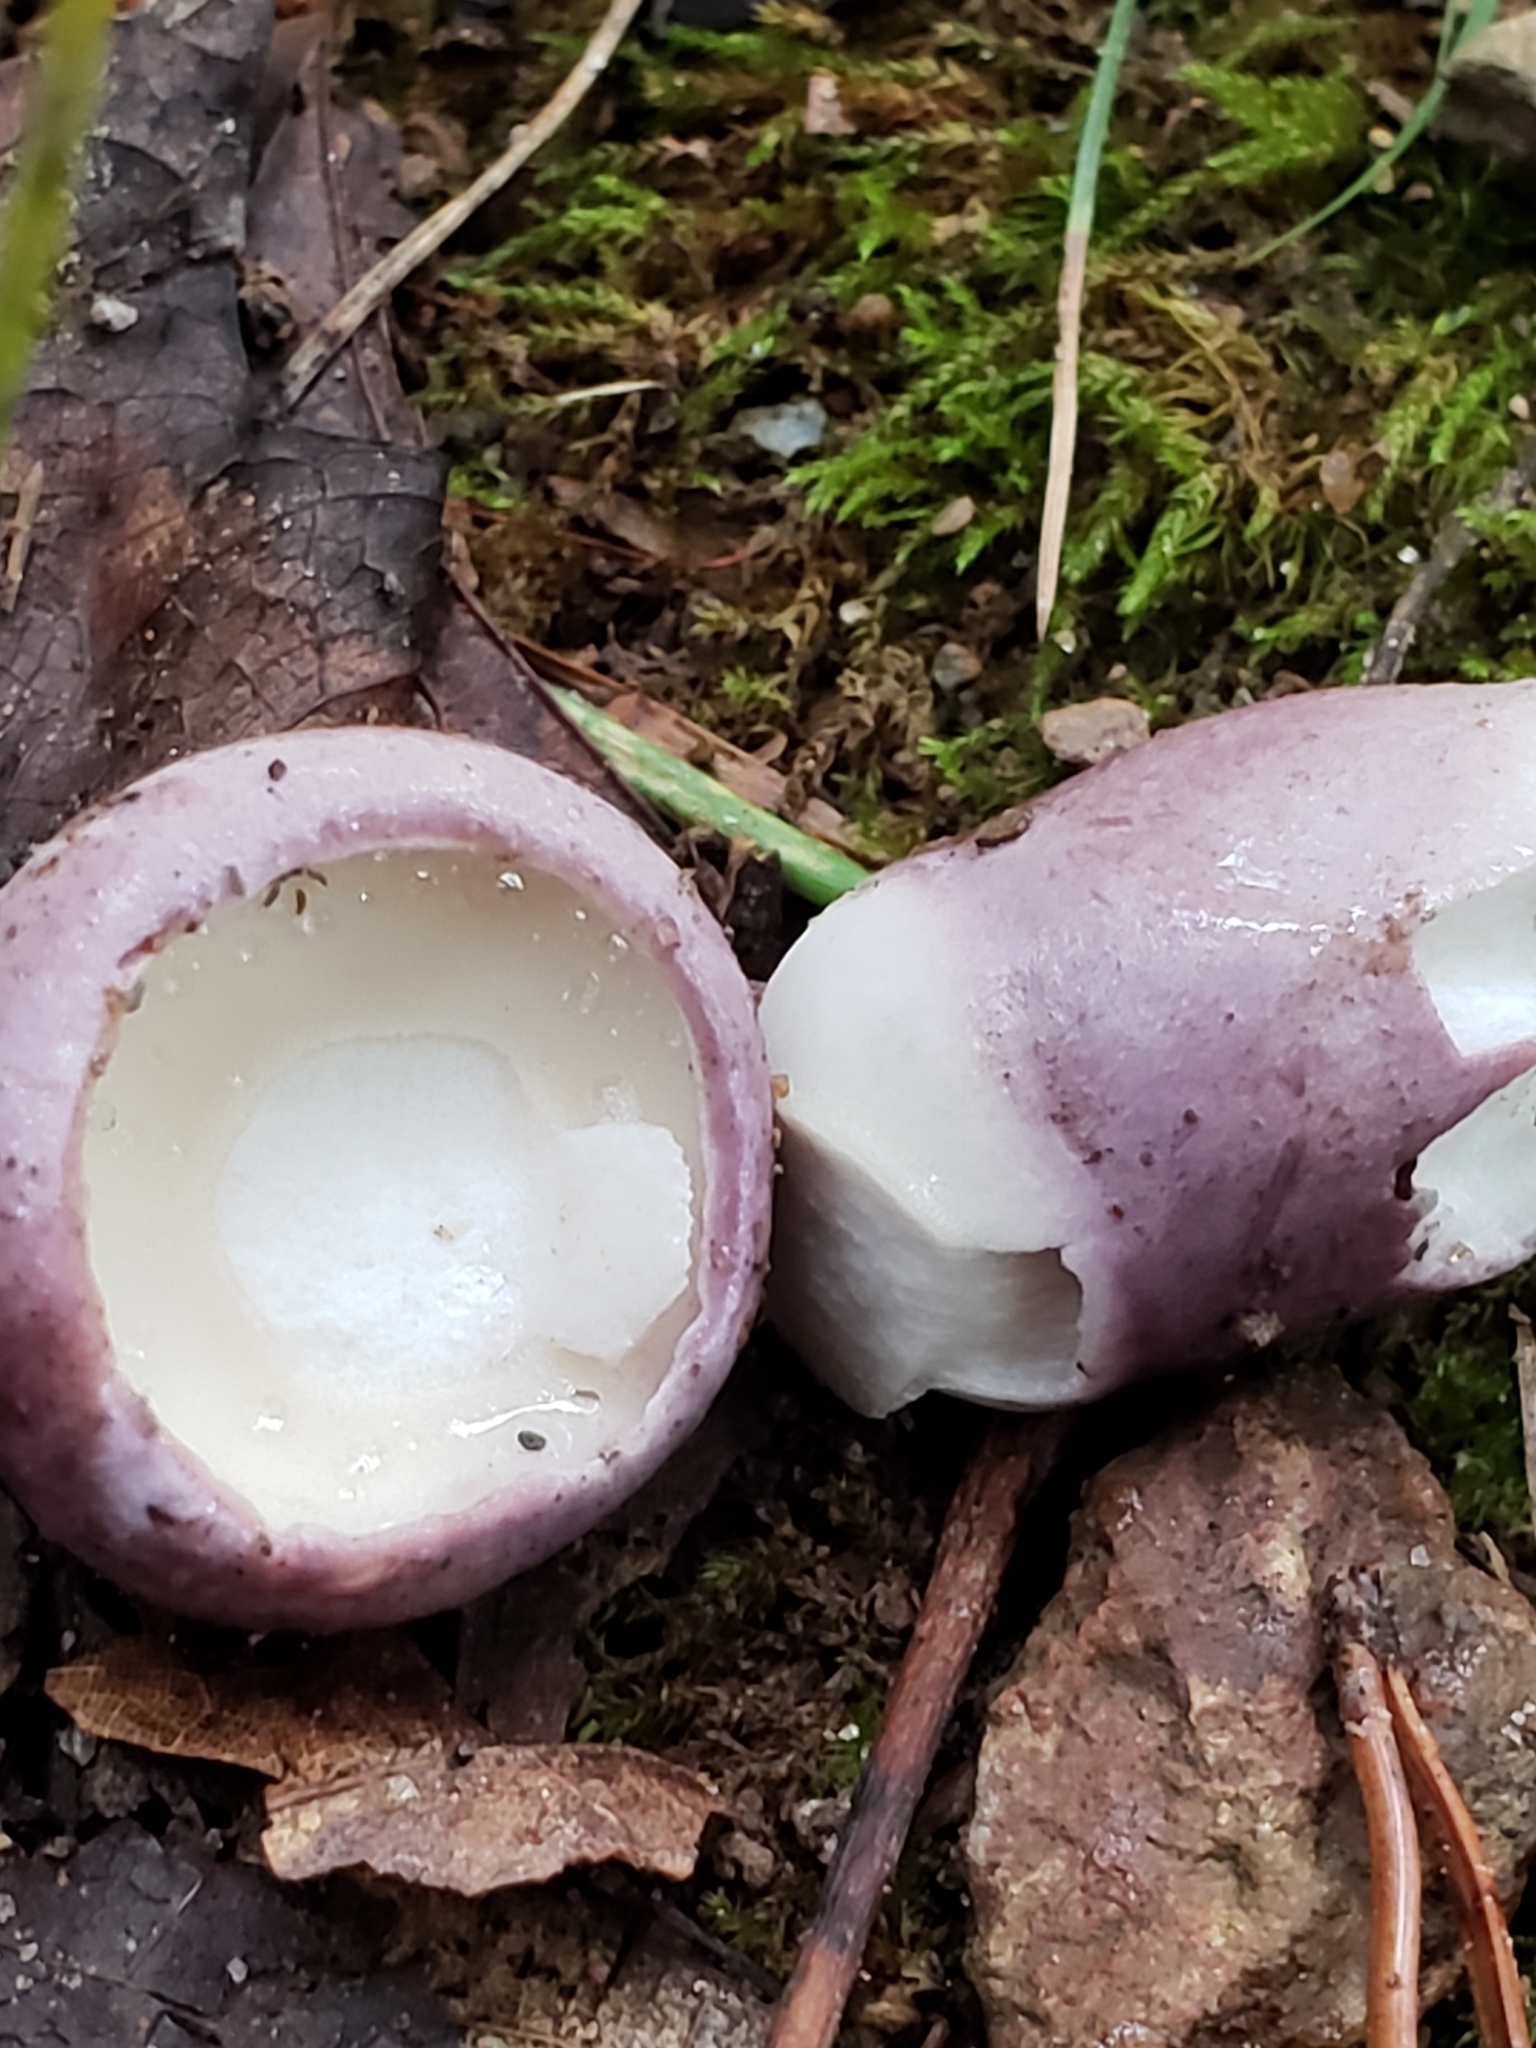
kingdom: Fungi
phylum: Basidiomycota
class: Agaricomycetes
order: Boletales
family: Boletaceae
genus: Tylopilus
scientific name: Tylopilus plumbeoviolaceus
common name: Violet gray bolete
